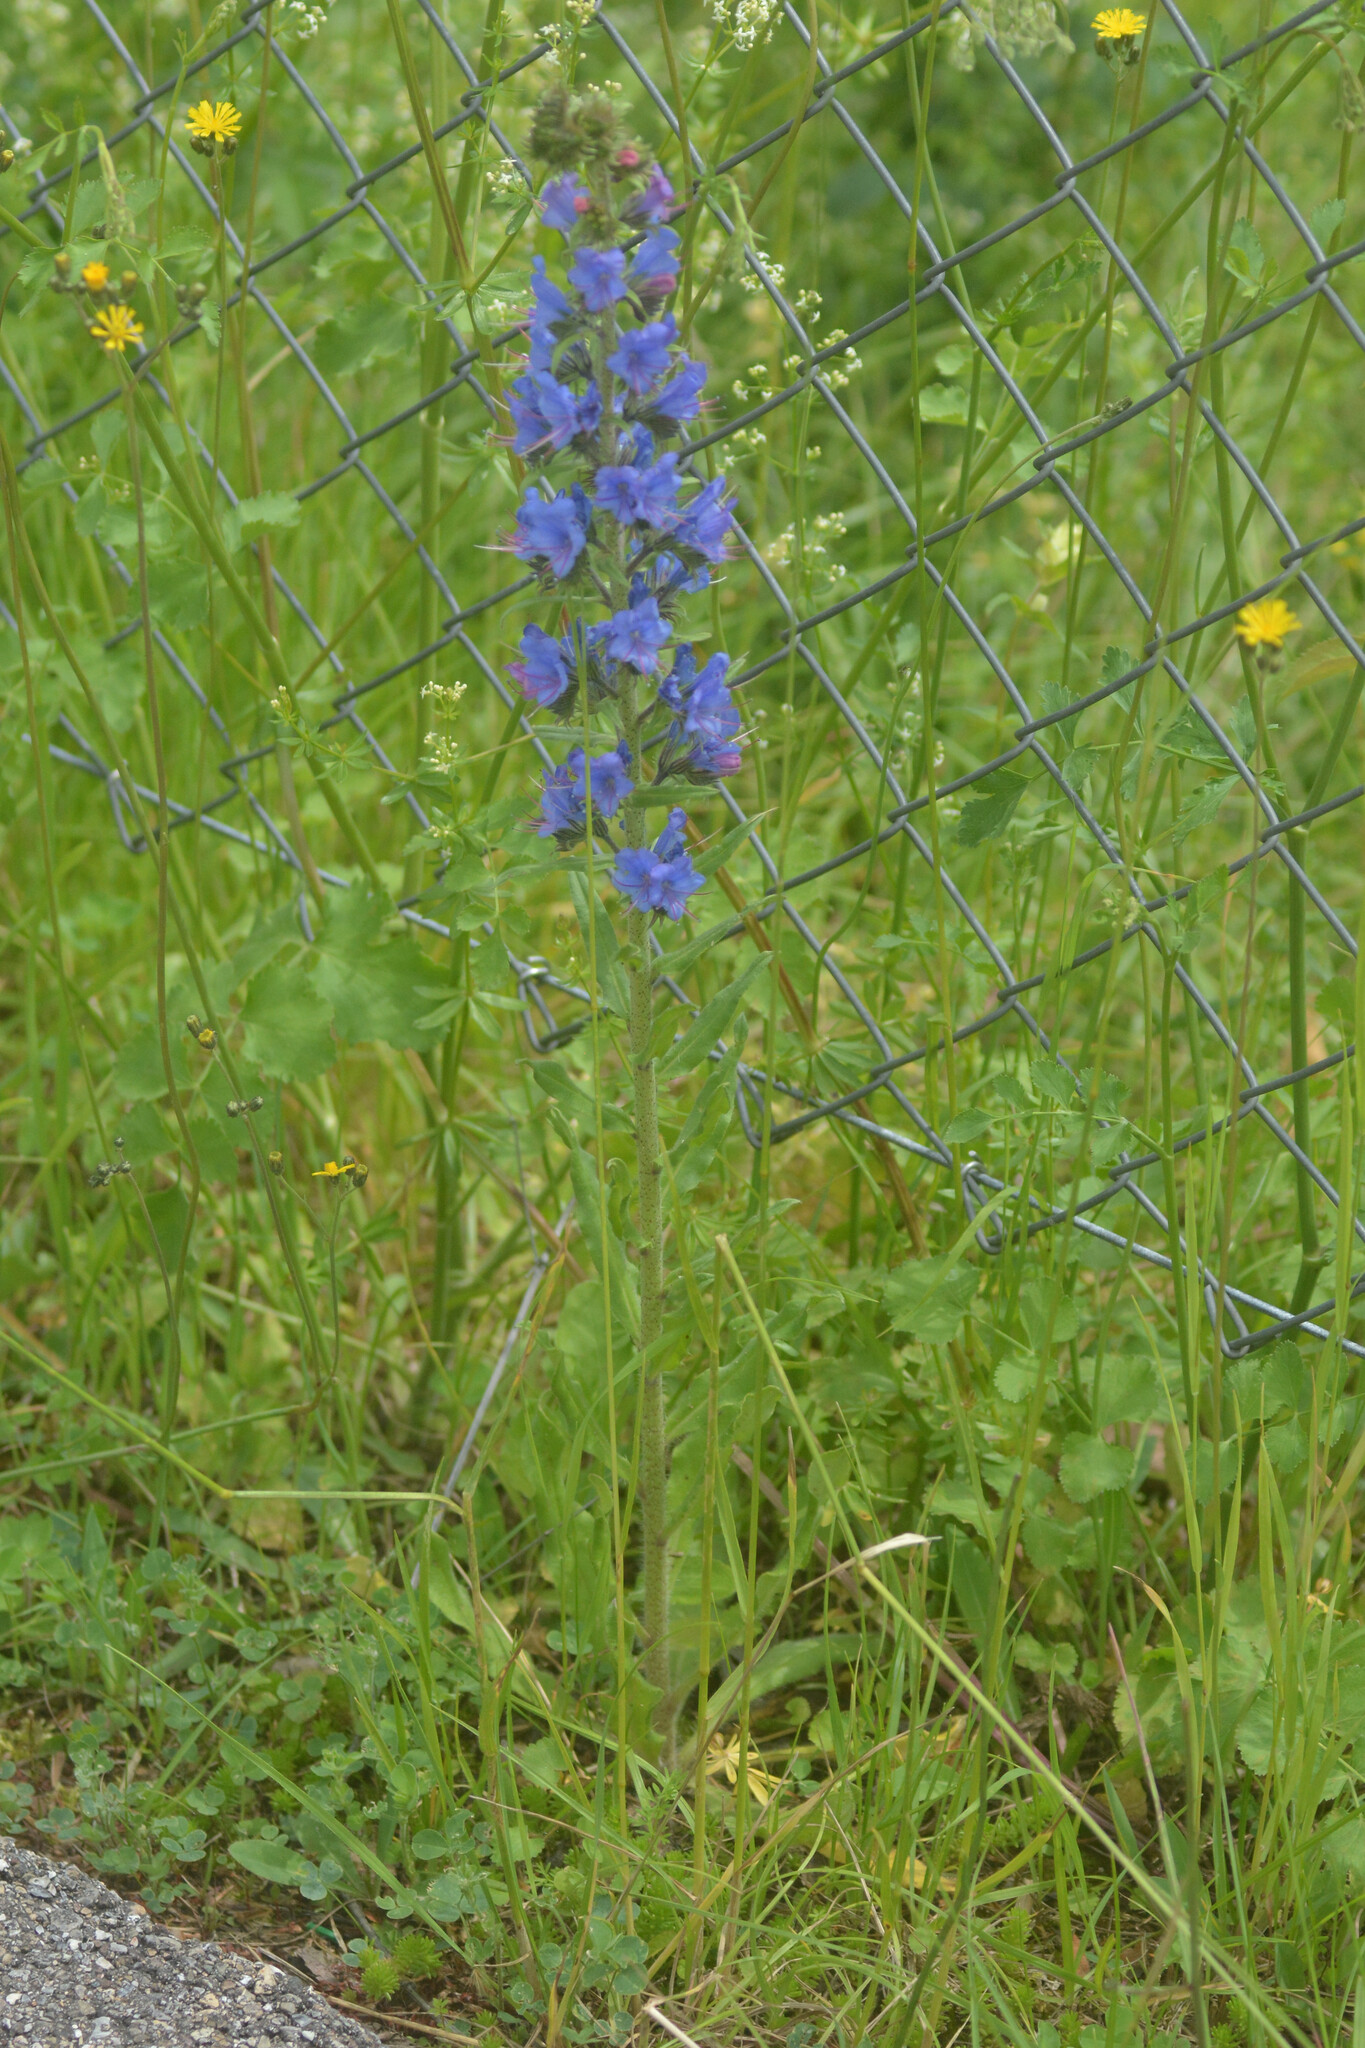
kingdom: Plantae
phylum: Tracheophyta
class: Magnoliopsida
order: Boraginales
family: Boraginaceae
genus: Echium
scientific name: Echium vulgare
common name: Common viper's bugloss
